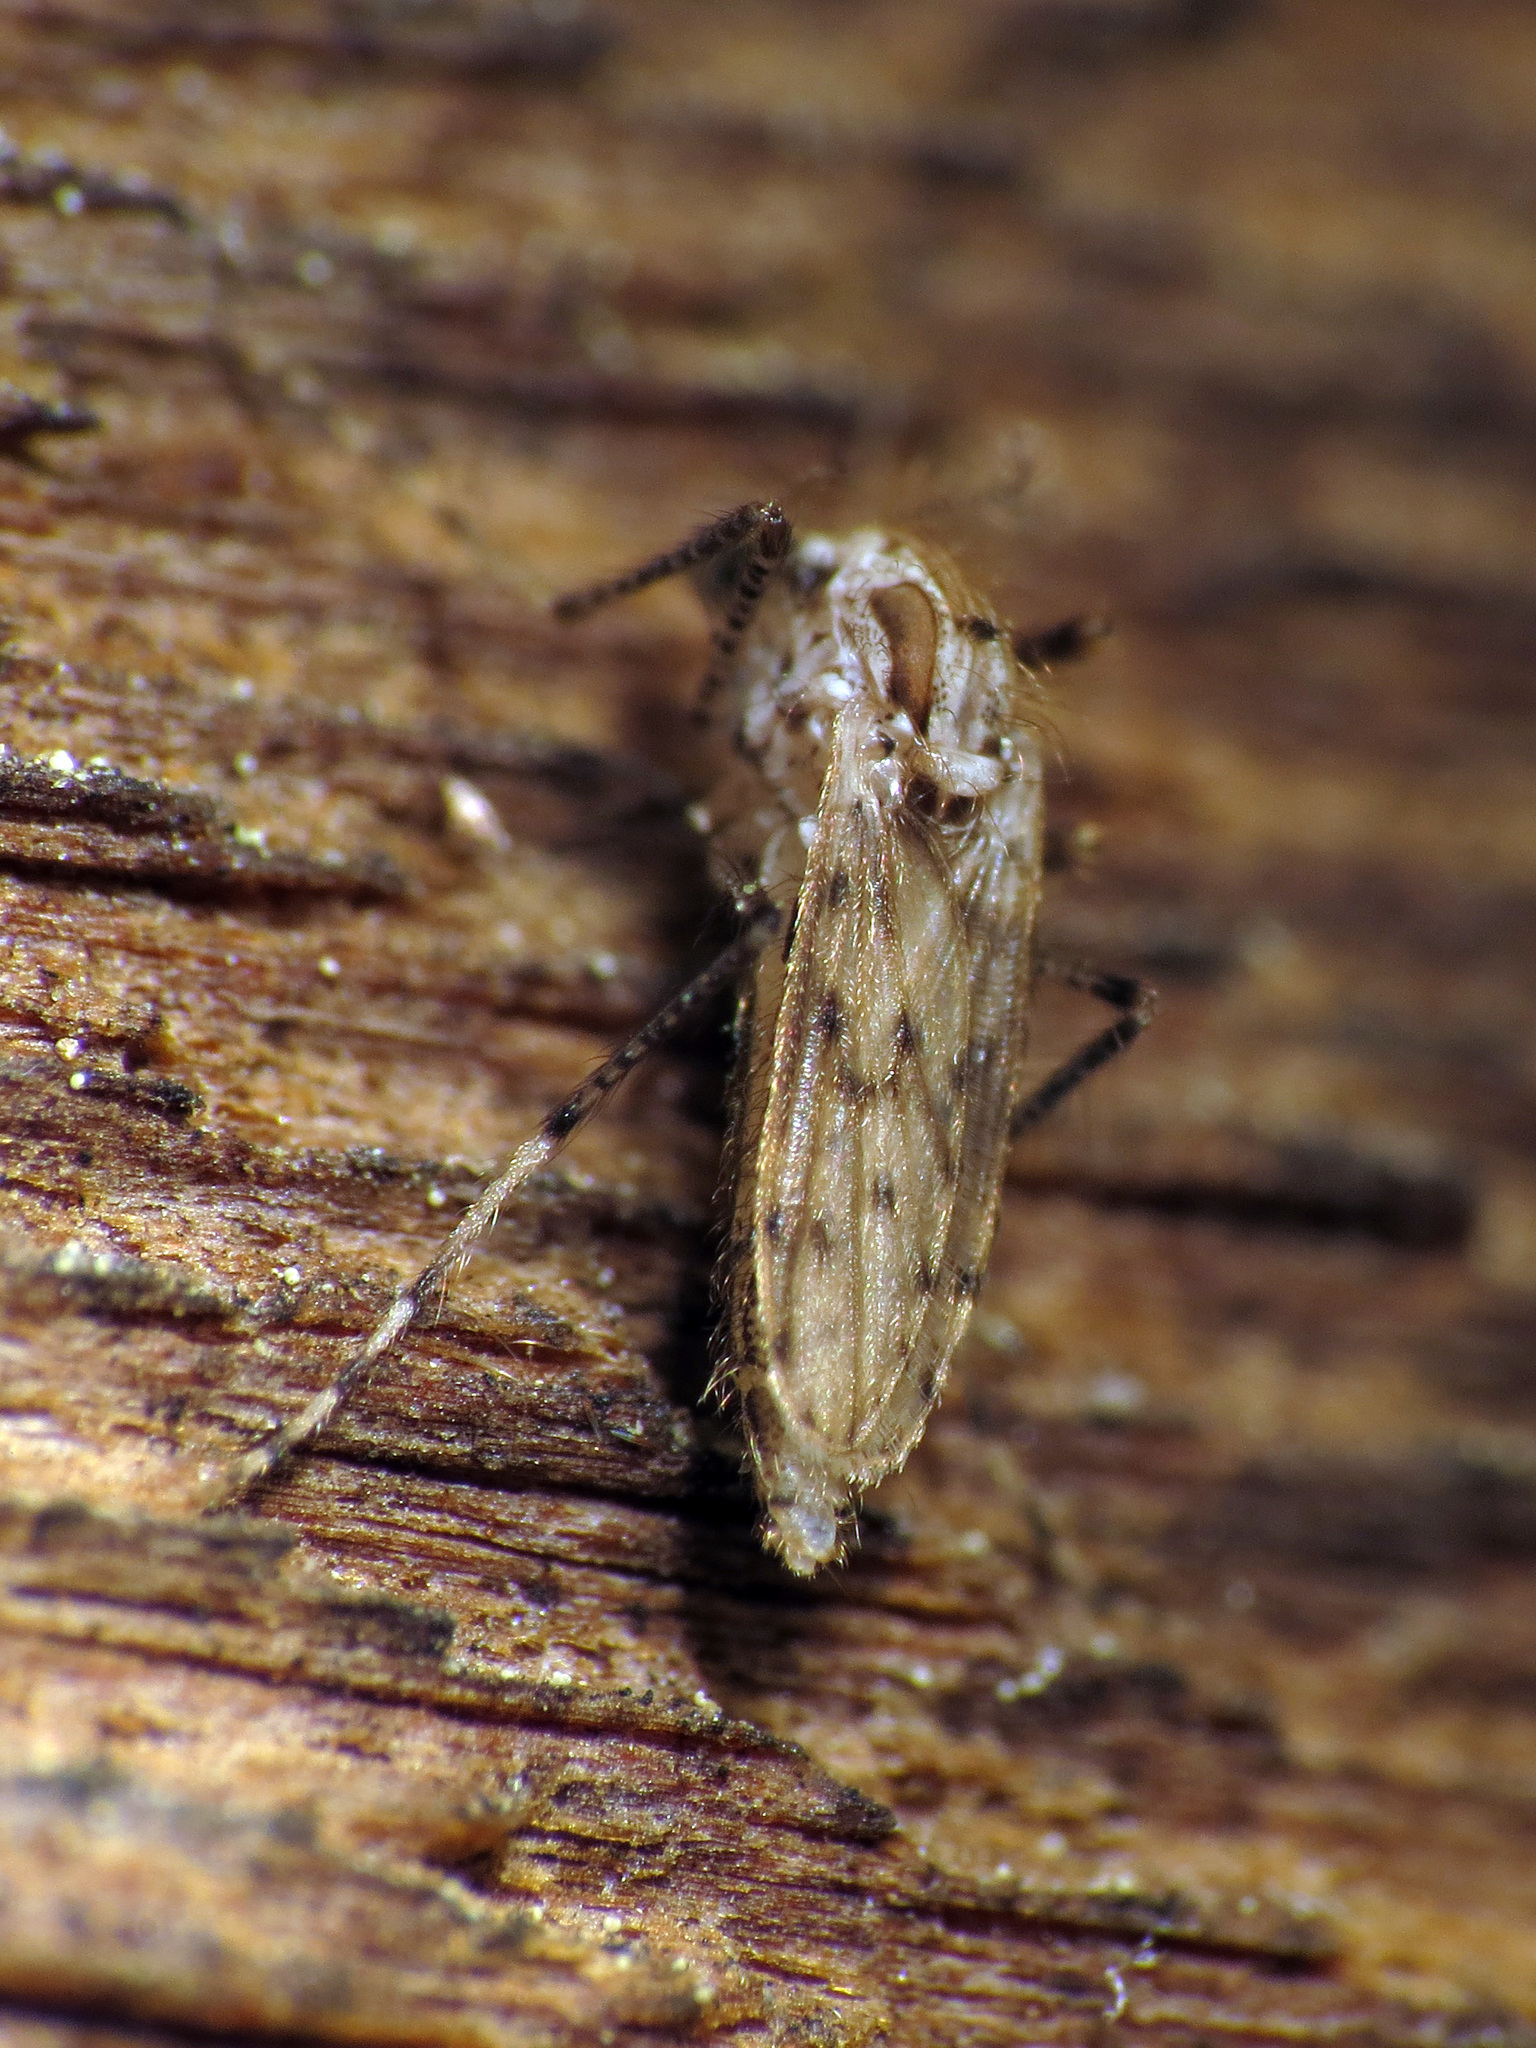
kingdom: Animalia
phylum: Arthropoda
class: Insecta
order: Diptera
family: Chaoboridae
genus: Chaoborus
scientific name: Chaoborus punctipennis
